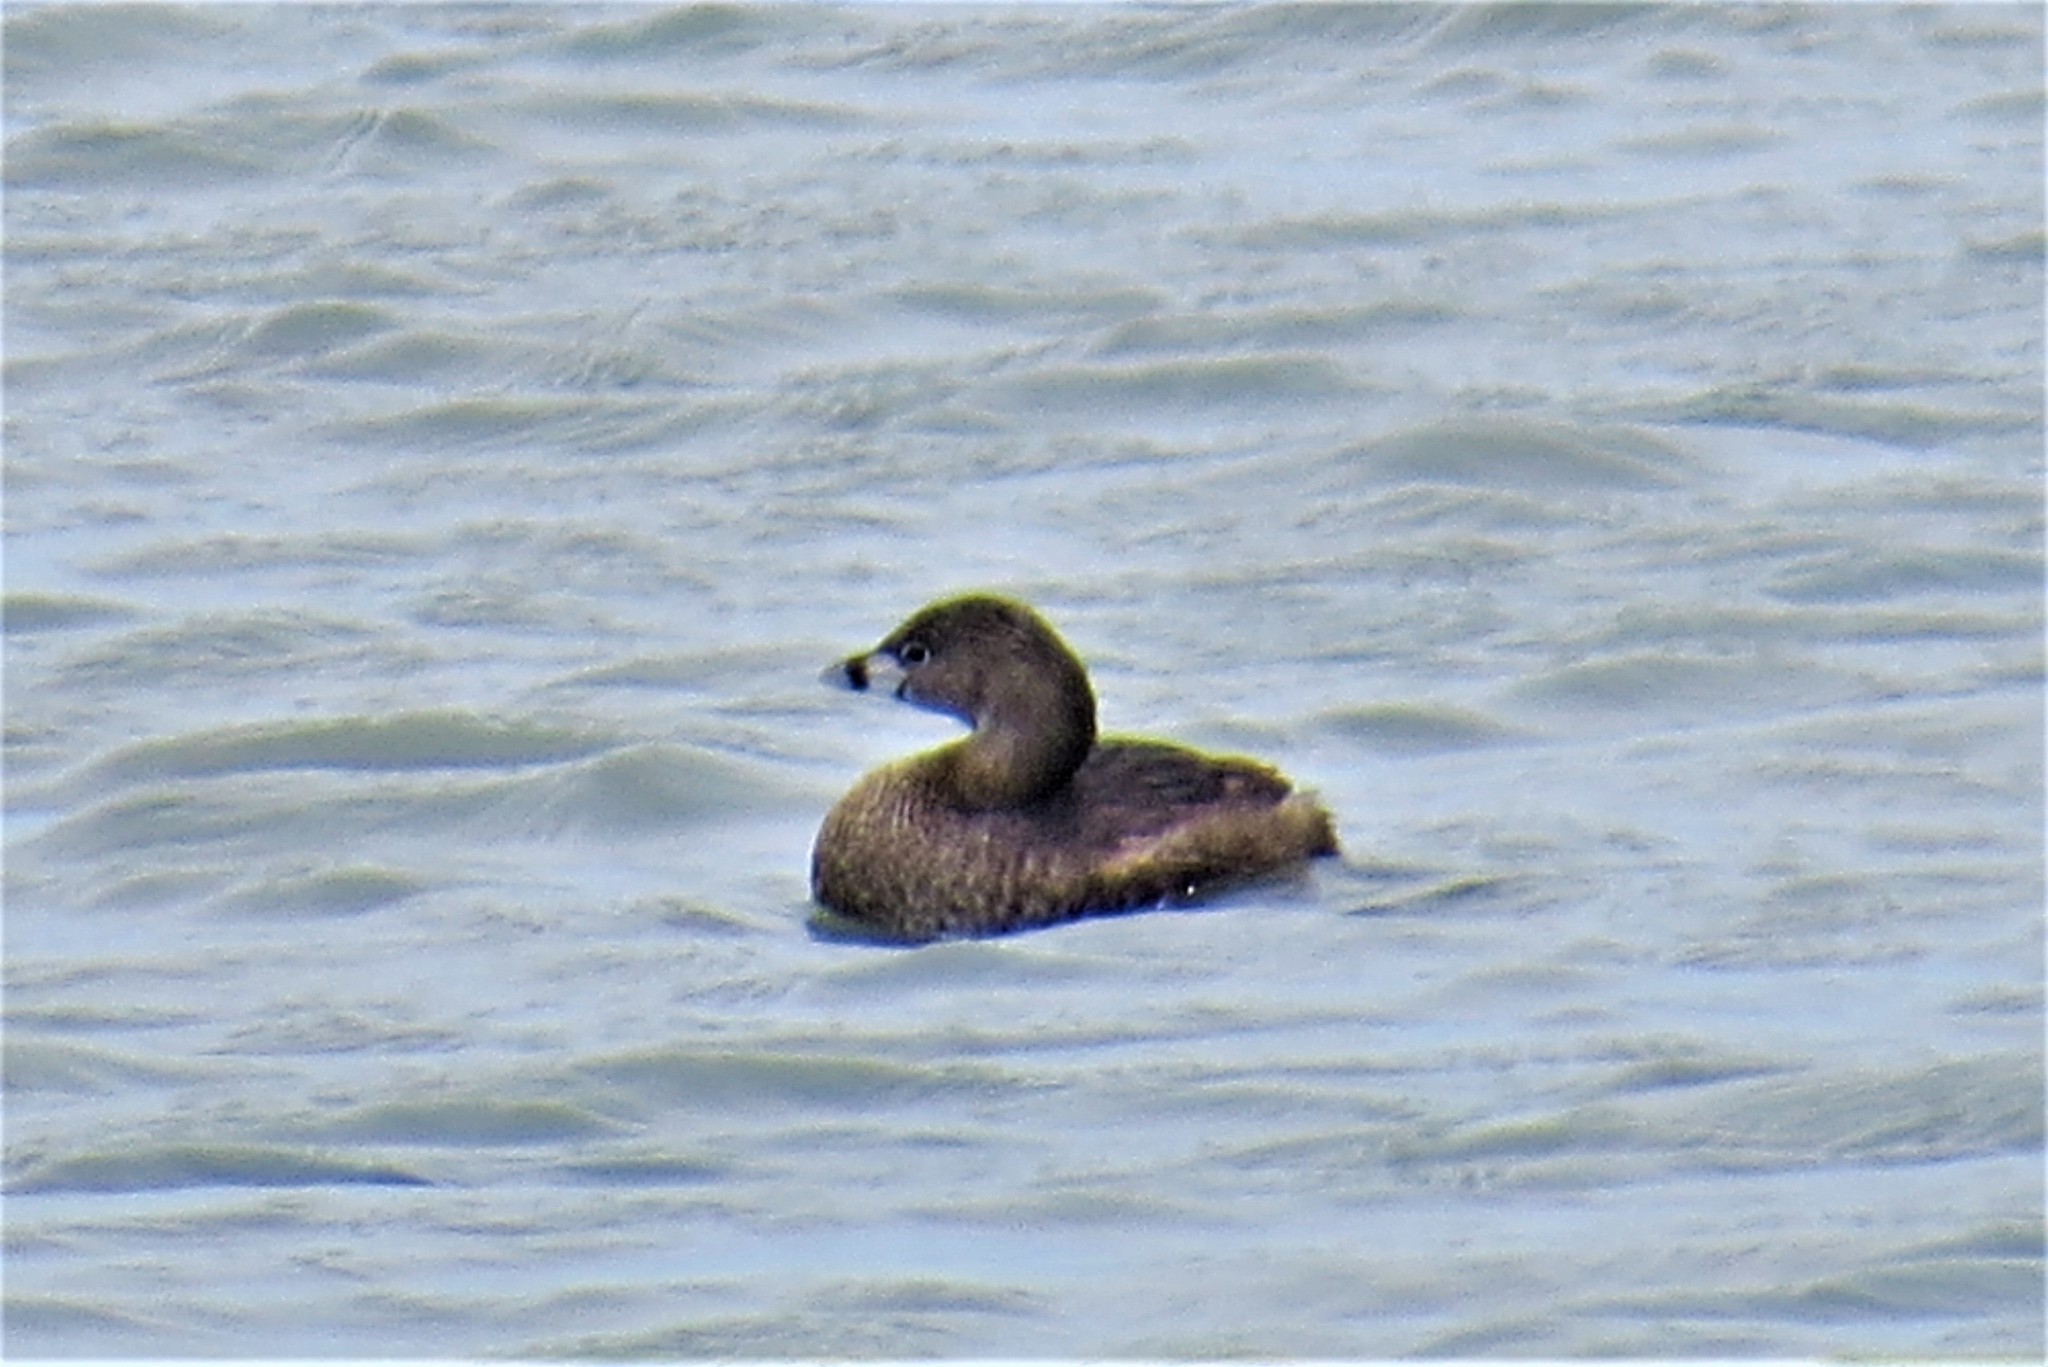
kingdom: Animalia
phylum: Chordata
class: Aves
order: Podicipediformes
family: Podicipedidae
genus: Podilymbus
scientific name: Podilymbus podiceps
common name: Pied-billed grebe
